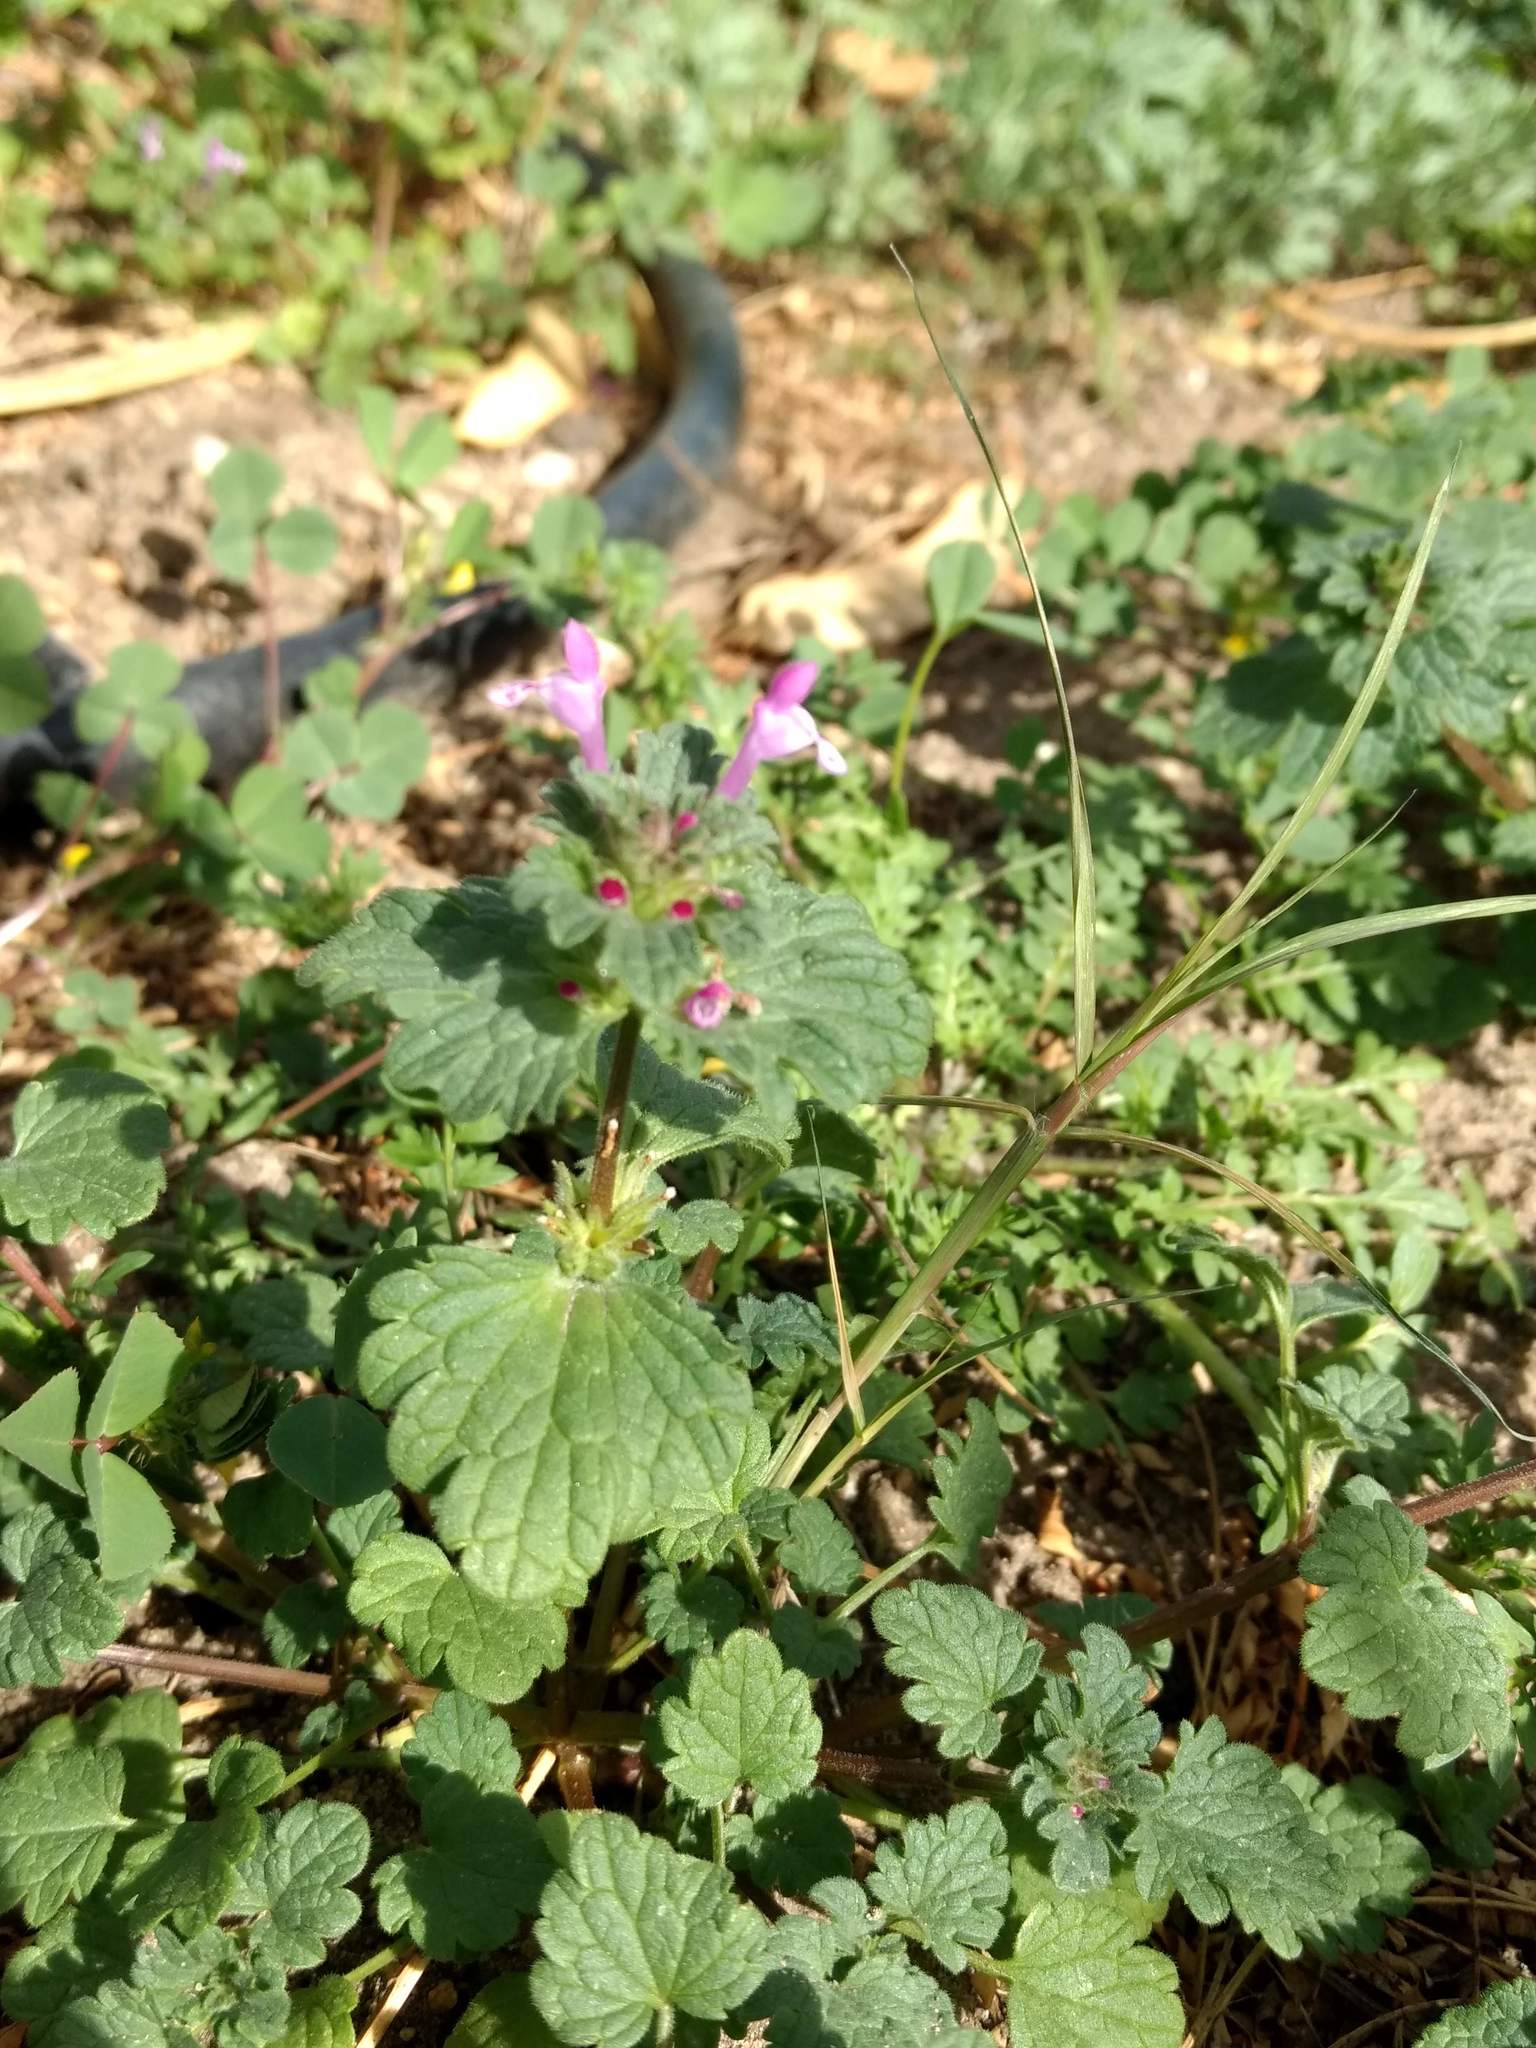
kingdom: Plantae
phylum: Tracheophyta
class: Magnoliopsida
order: Lamiales
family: Lamiaceae
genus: Lamium
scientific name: Lamium amplexicaule
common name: Henbit dead-nettle
